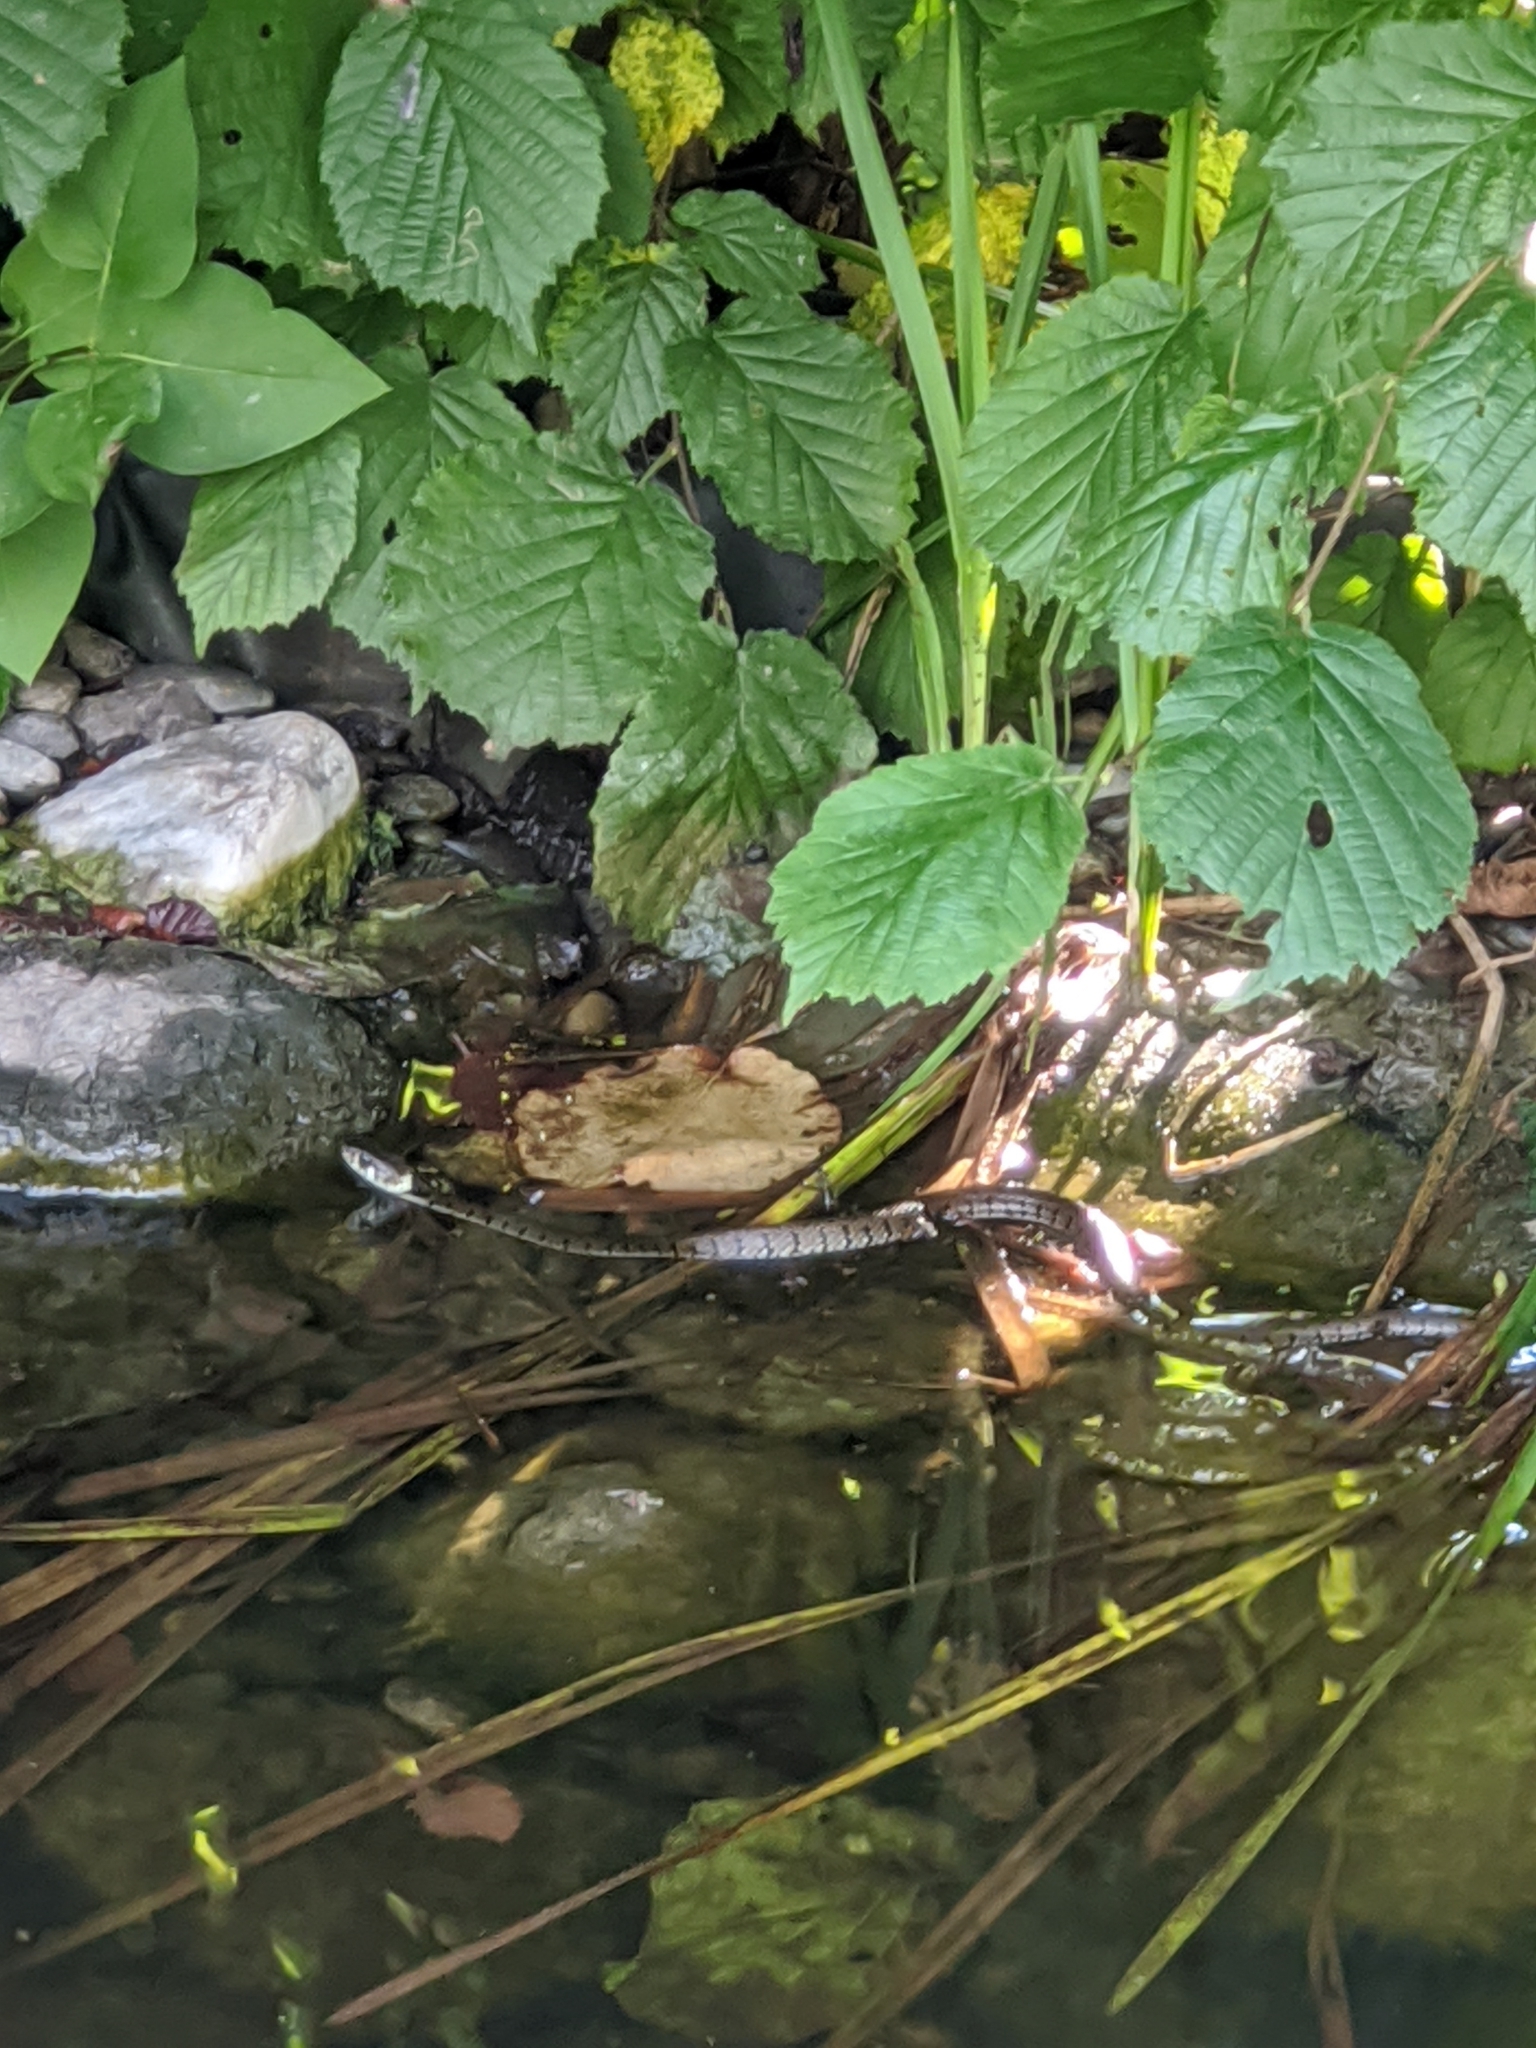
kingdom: Animalia
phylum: Chordata
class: Squamata
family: Colubridae
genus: Natrix
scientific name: Natrix helvetica
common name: Banded grass snake
